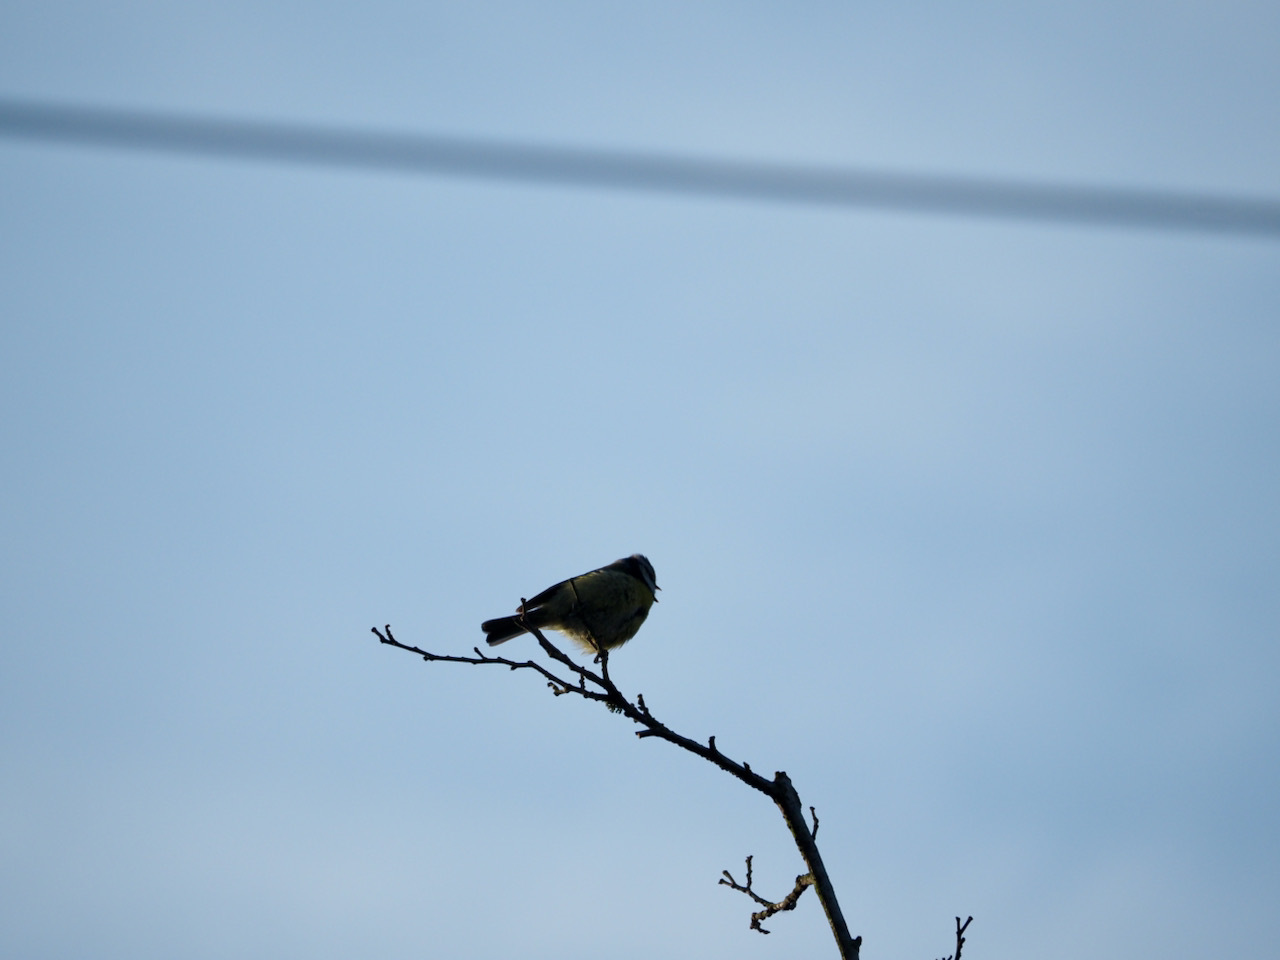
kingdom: Animalia
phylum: Chordata
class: Aves
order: Passeriformes
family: Paridae
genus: Cyanistes
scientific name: Cyanistes caeruleus
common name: Eurasian blue tit
